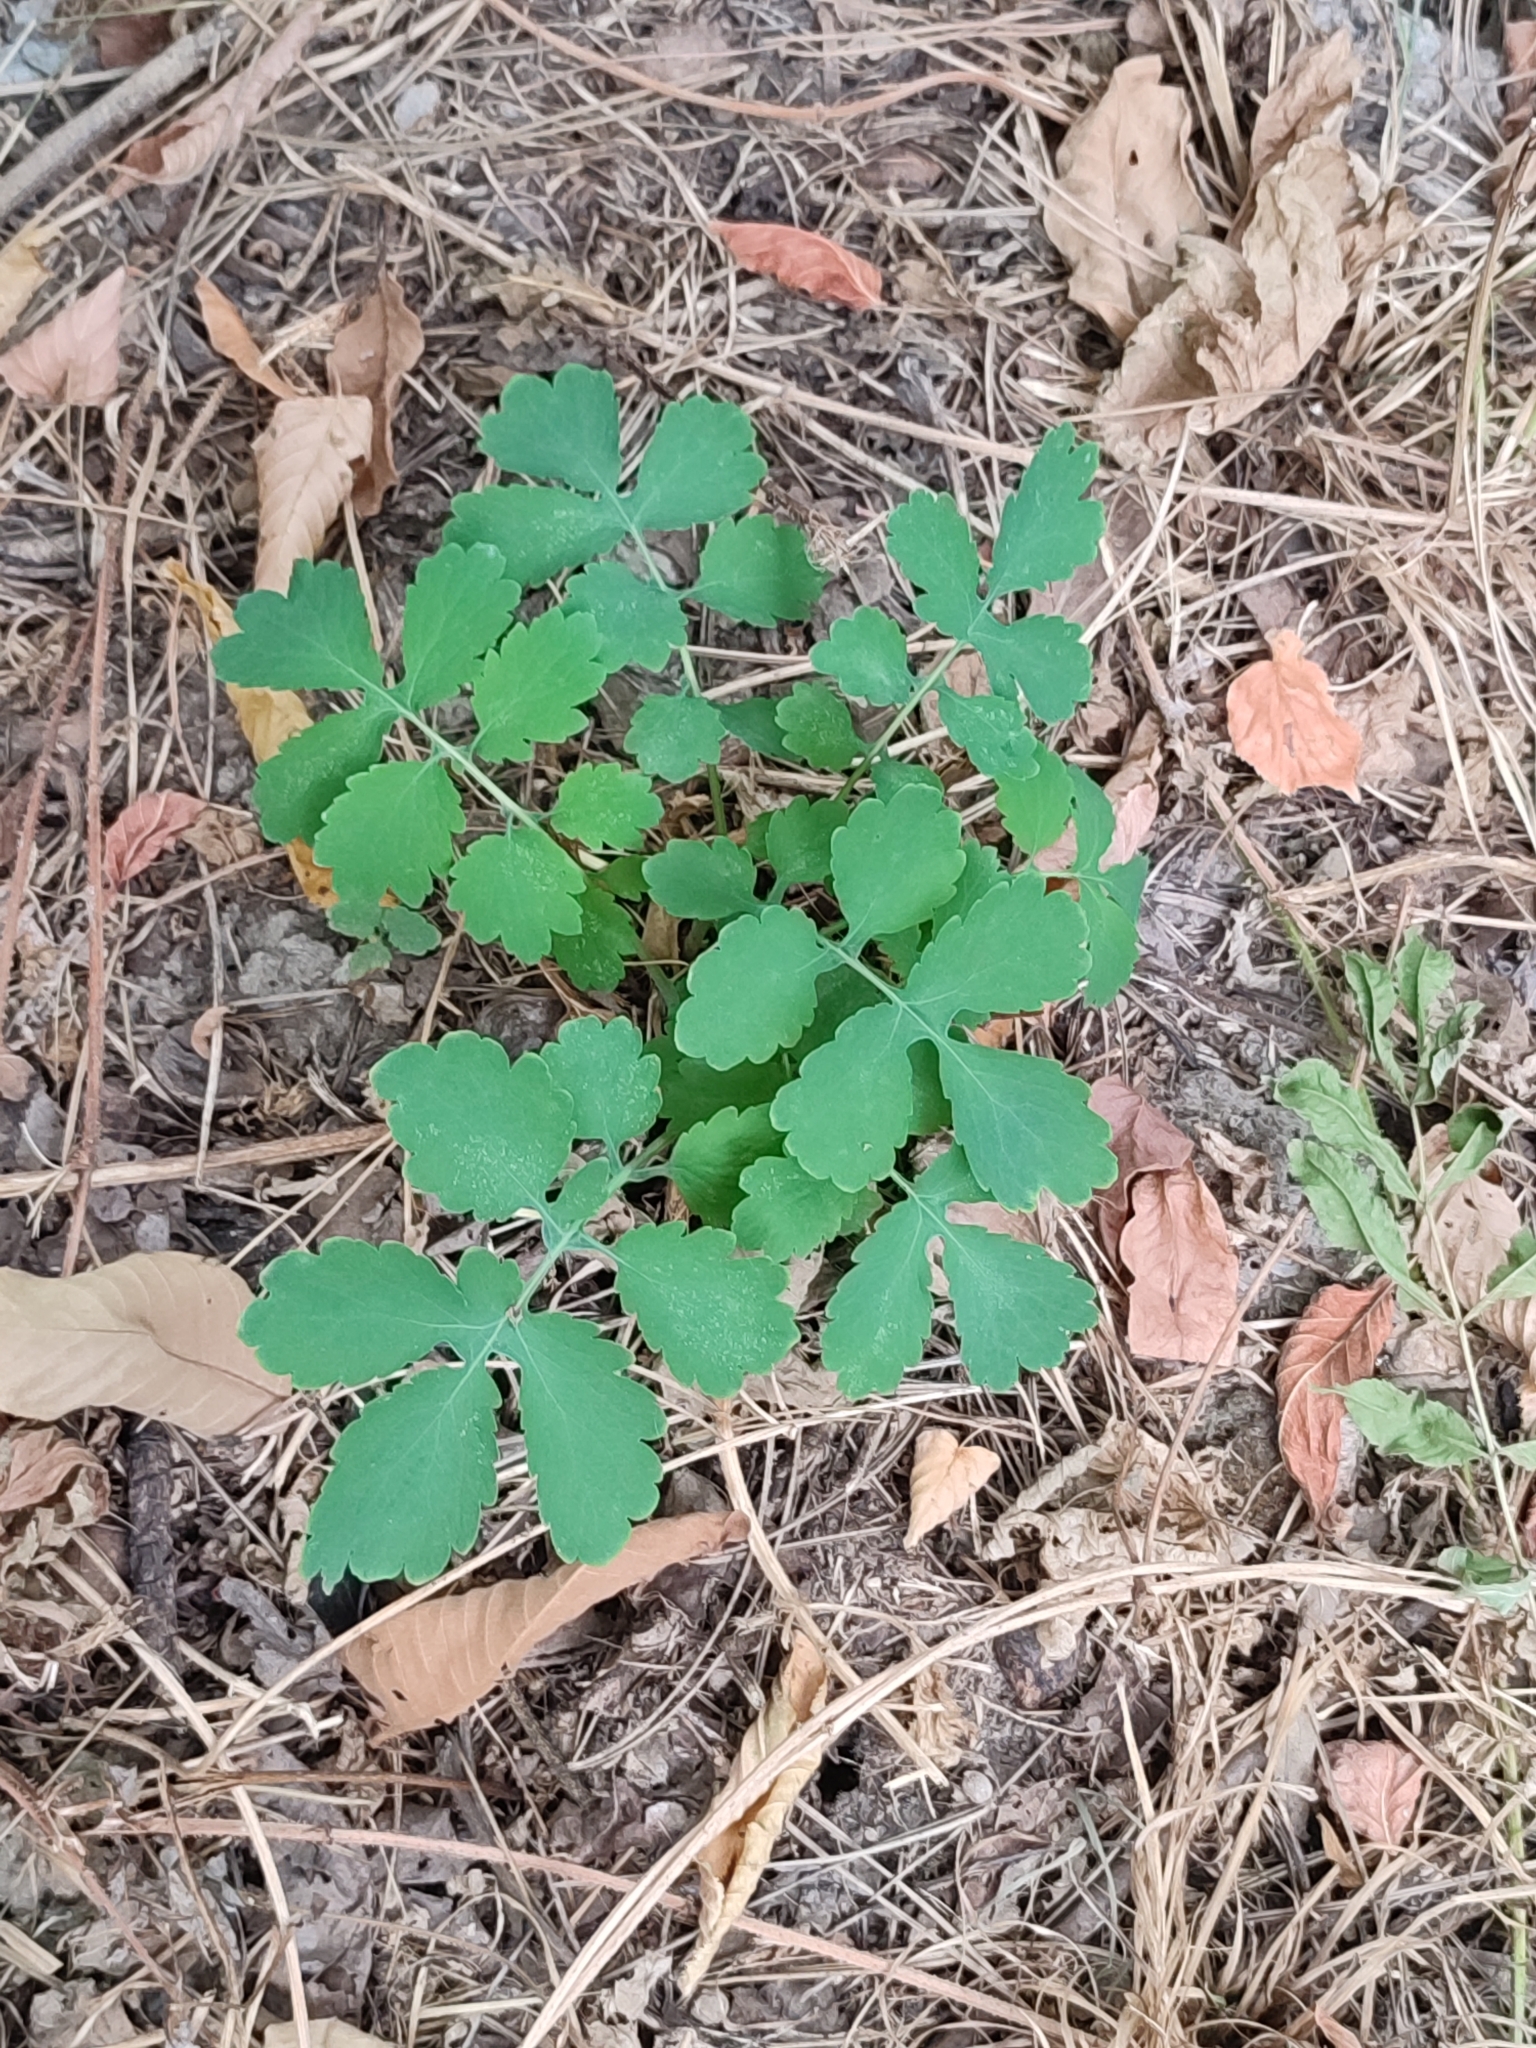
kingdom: Plantae
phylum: Tracheophyta
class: Magnoliopsida
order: Ranunculales
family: Papaveraceae
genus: Chelidonium
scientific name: Chelidonium majus
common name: Greater celandine
